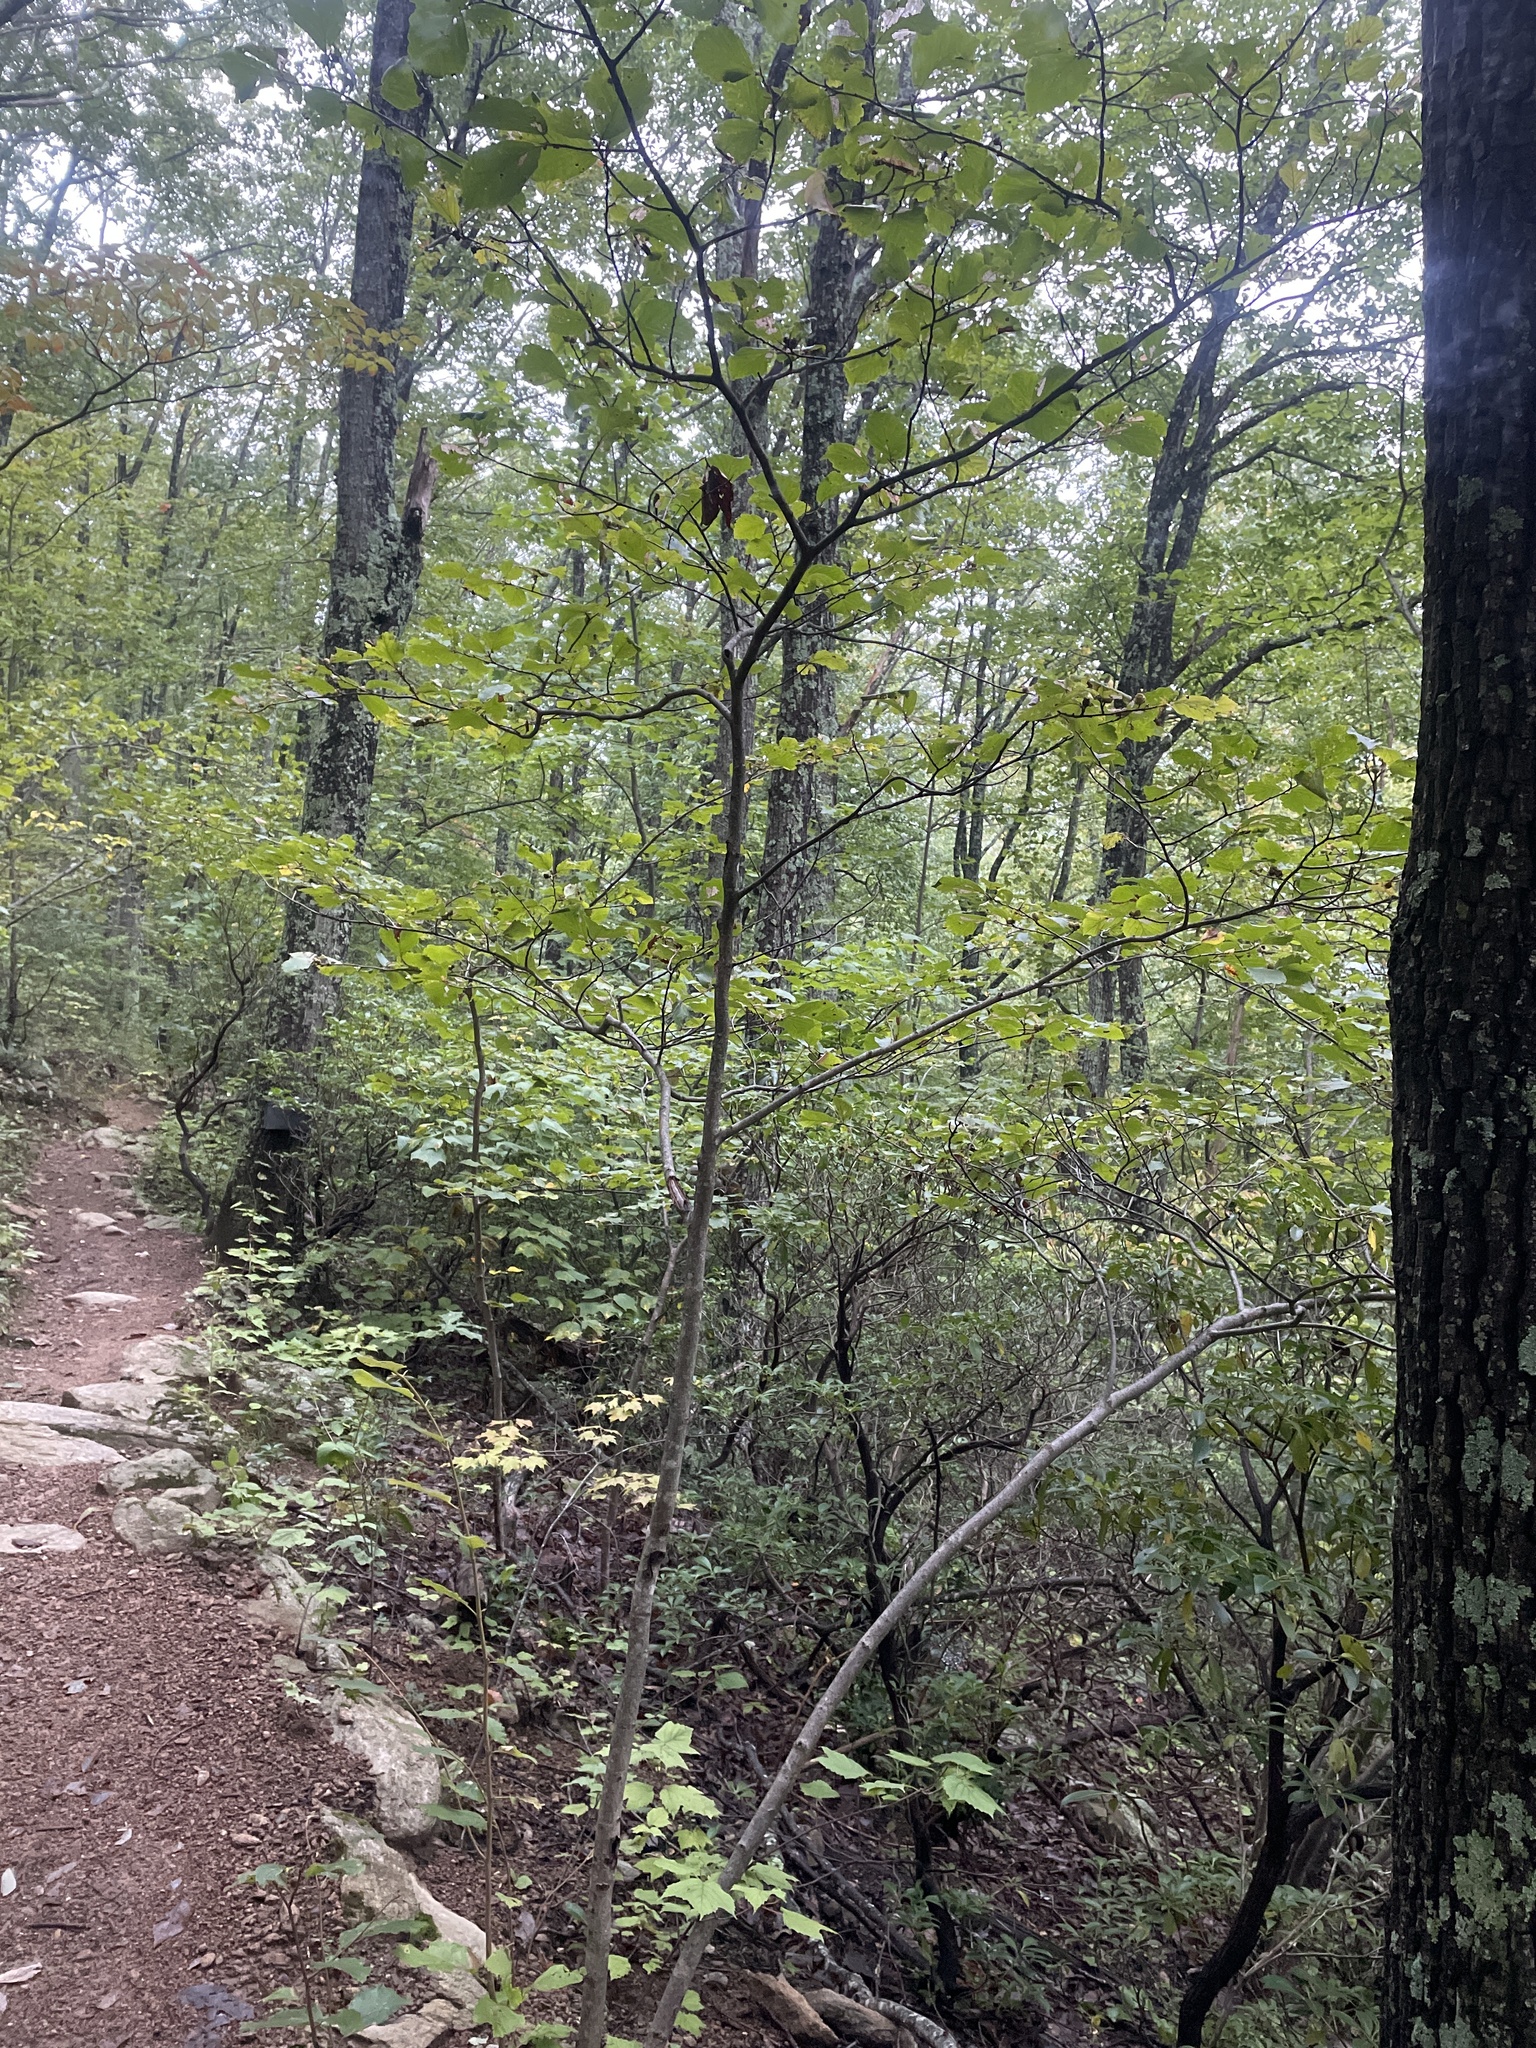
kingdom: Plantae
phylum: Tracheophyta
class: Magnoliopsida
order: Saxifragales
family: Hamamelidaceae
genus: Hamamelis
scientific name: Hamamelis virginiana
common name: Witch-hazel
